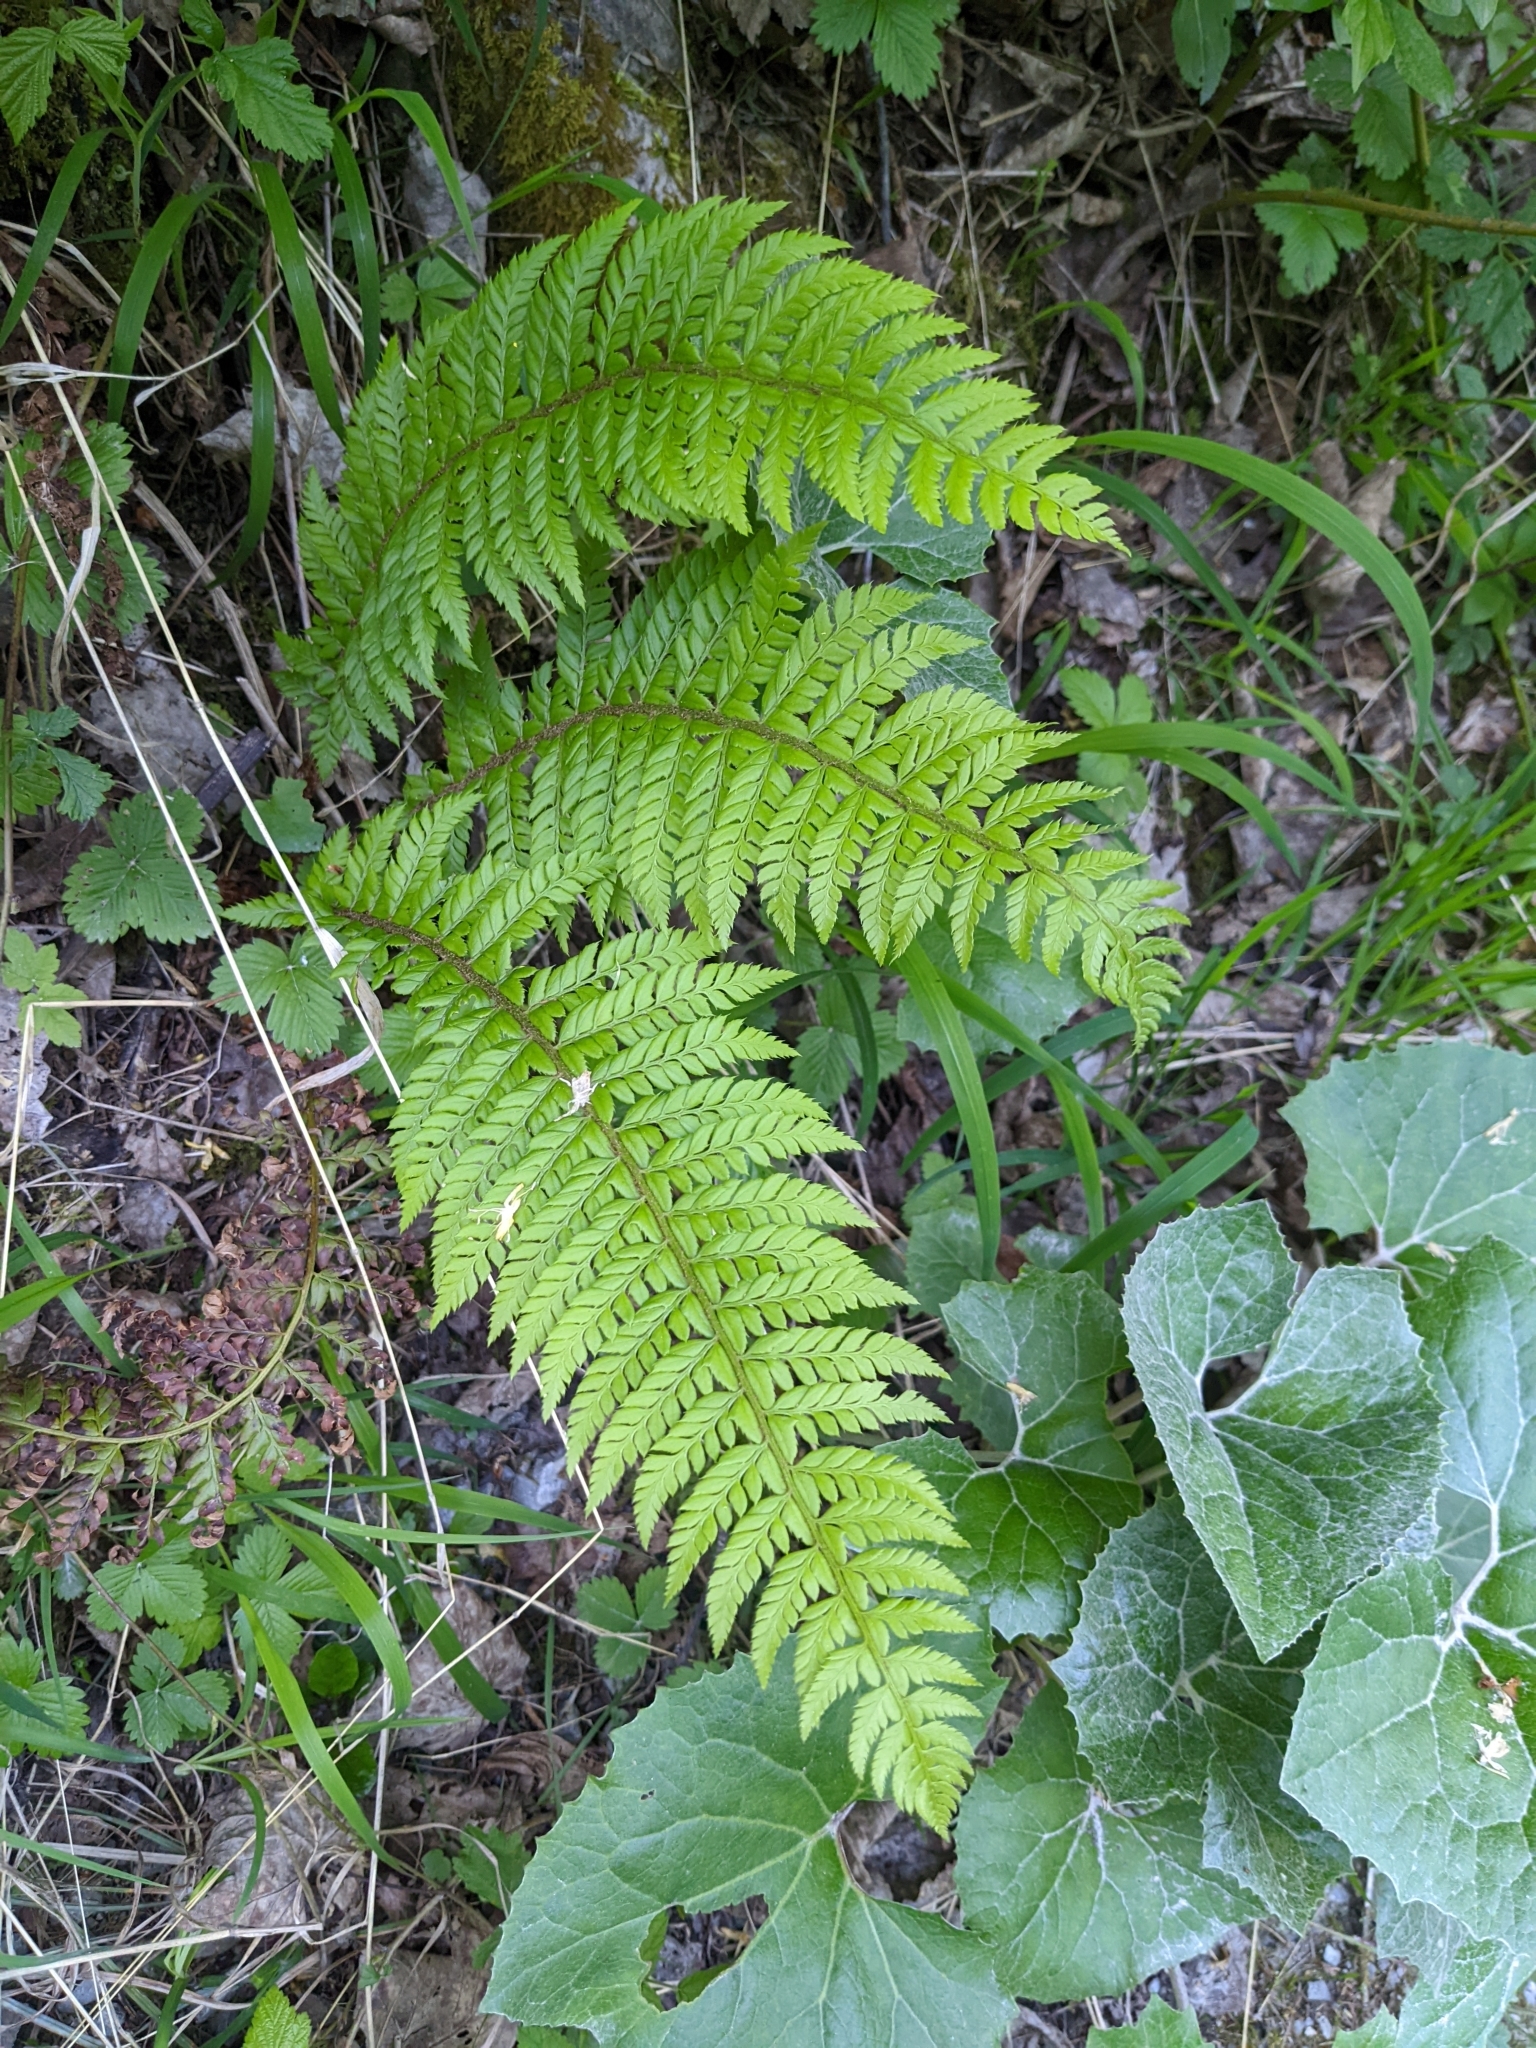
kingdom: Plantae
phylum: Tracheophyta
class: Polypodiopsida
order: Polypodiales
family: Dryopteridaceae
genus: Polystichum
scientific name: Polystichum aculeatum
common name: Hard shield-fern
